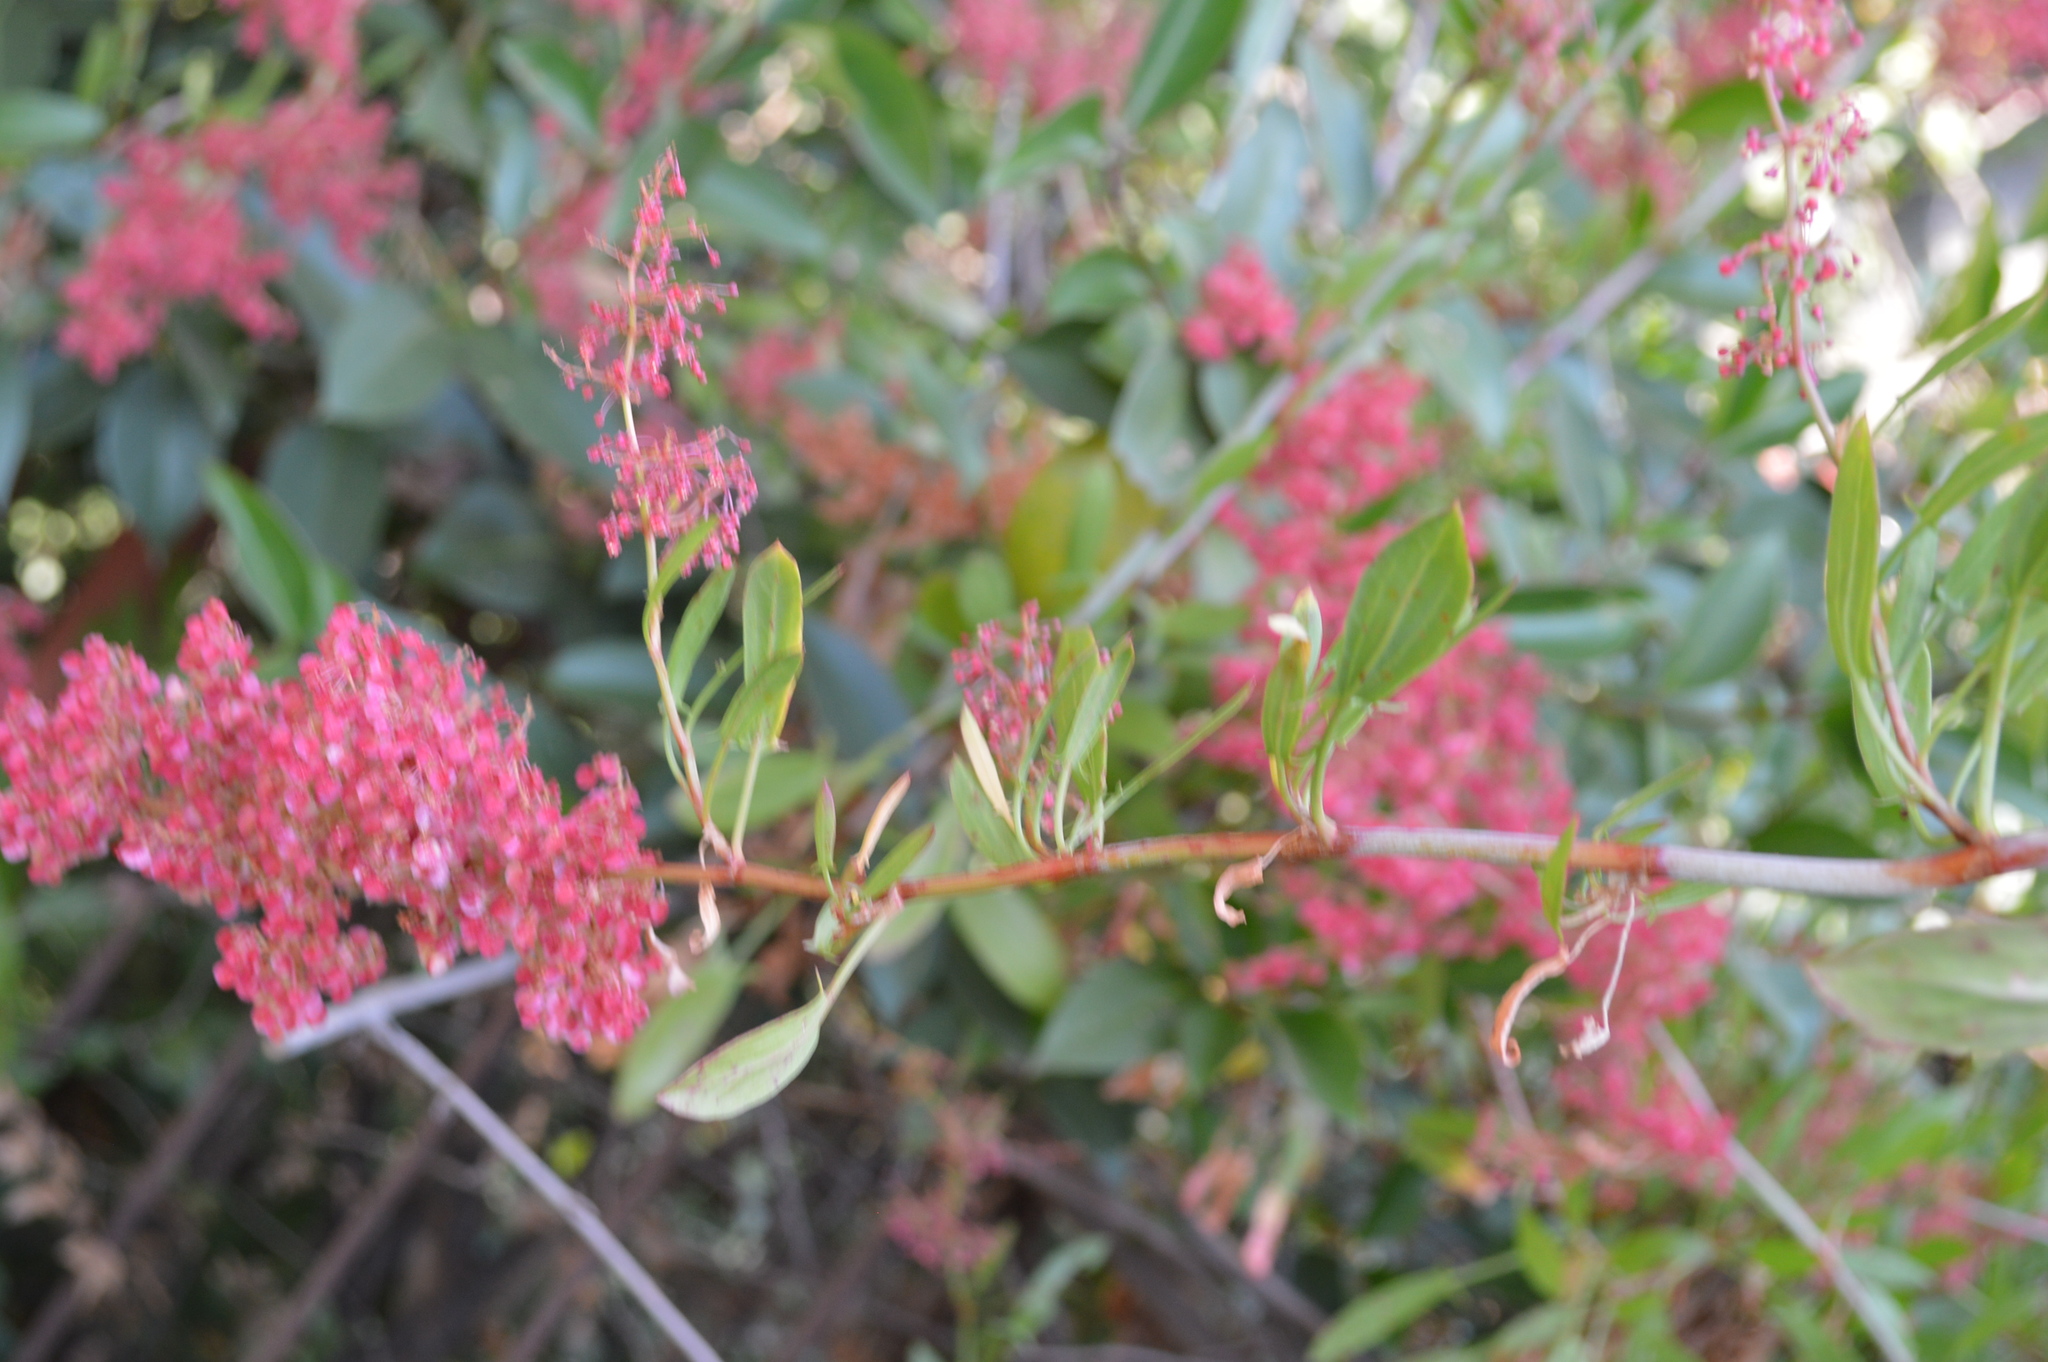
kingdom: Plantae
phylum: Tracheophyta
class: Magnoliopsida
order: Caryophyllales
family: Polygonaceae
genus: Rumex
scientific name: Rumex usambarensis
